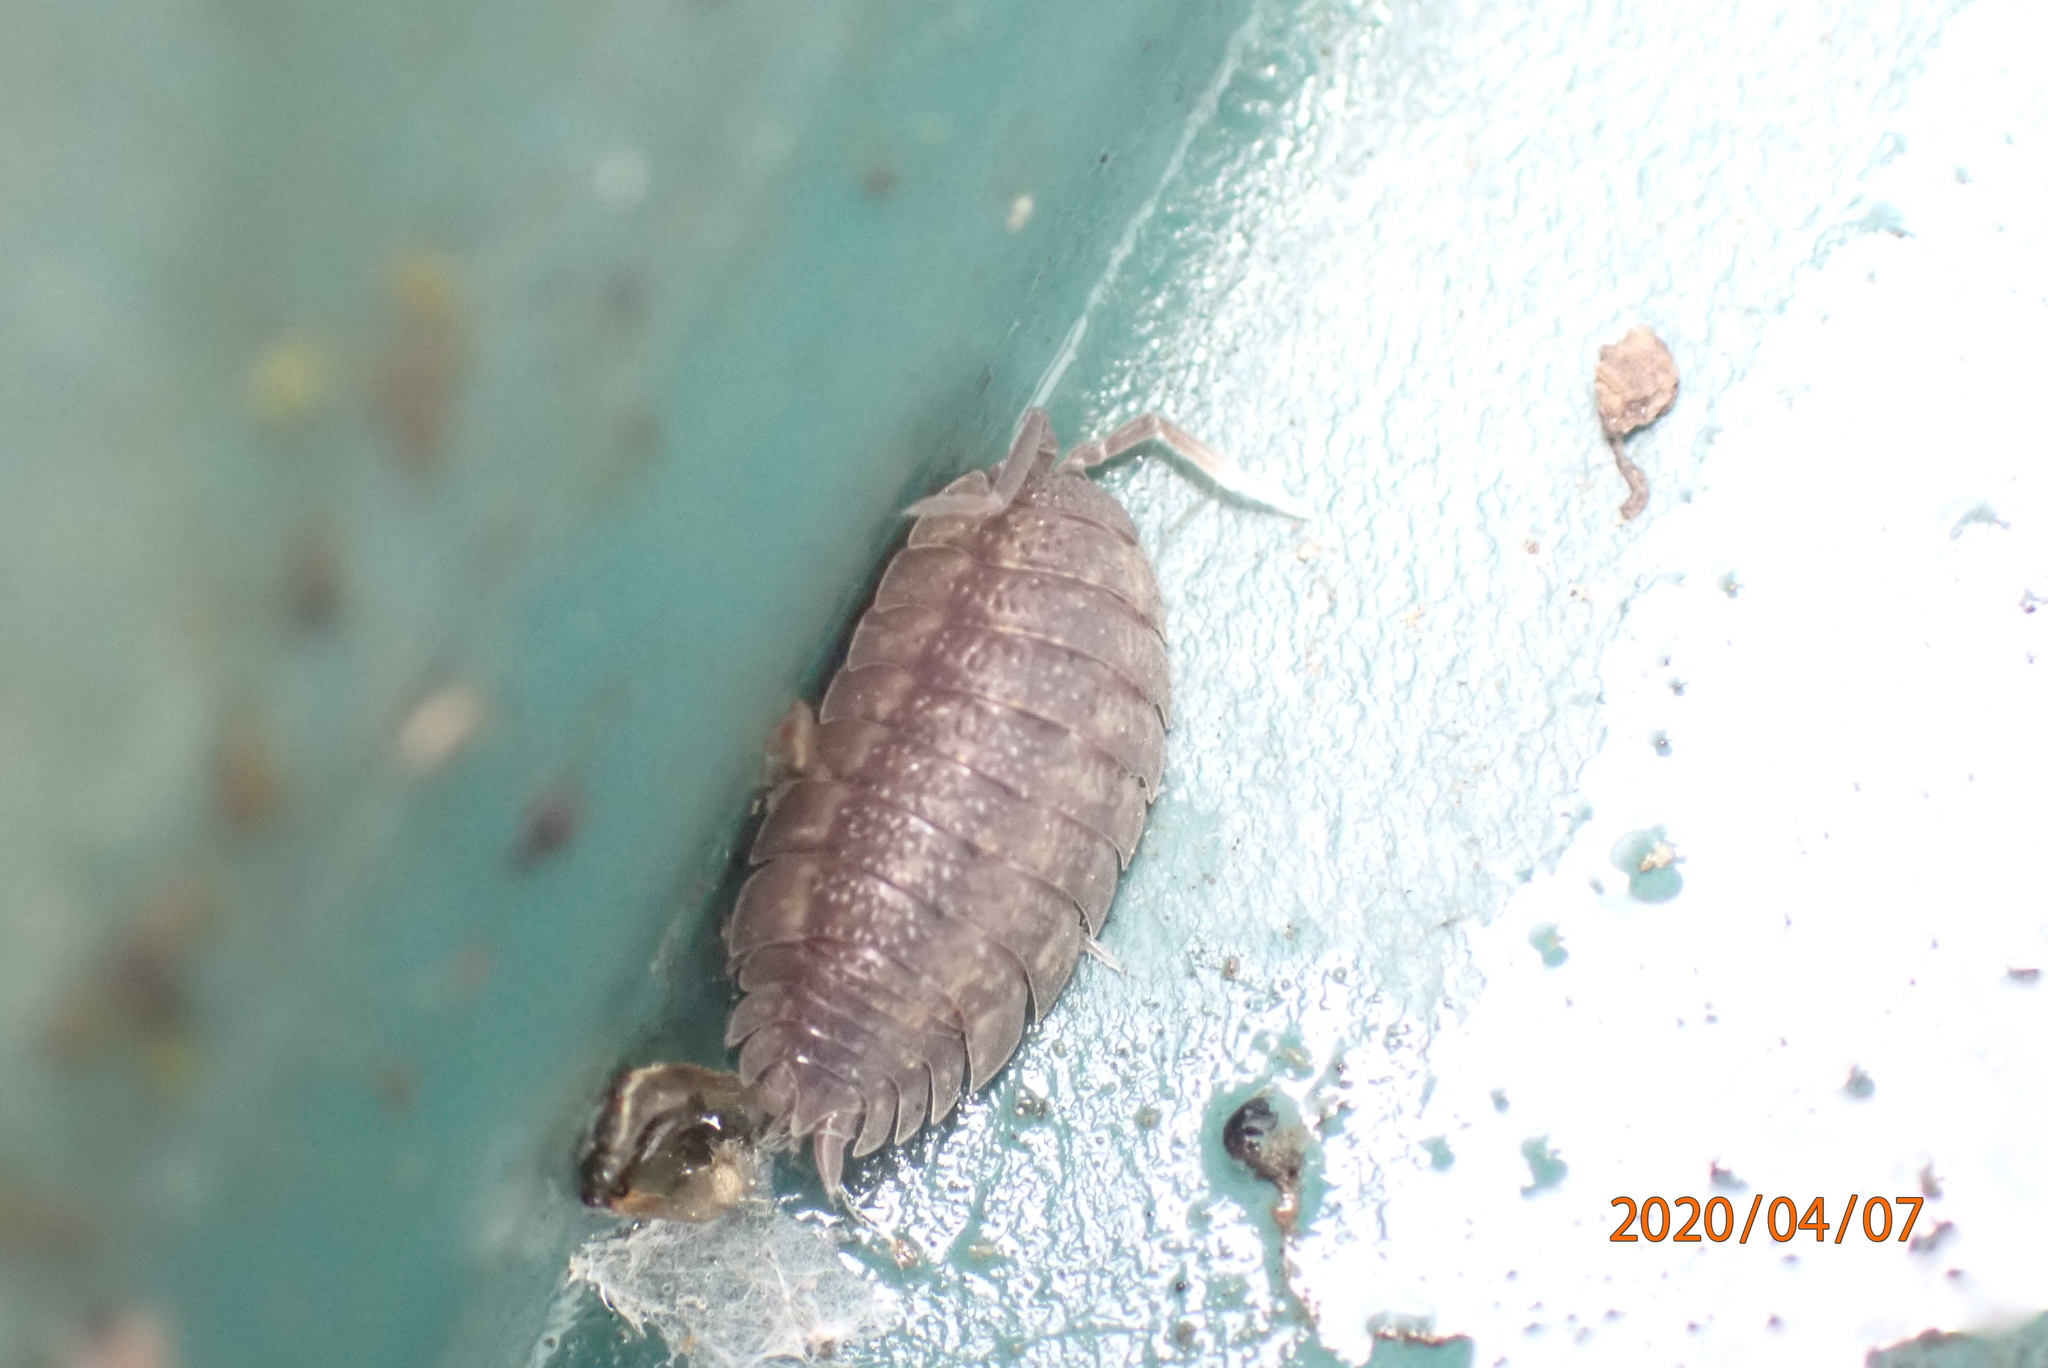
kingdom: Animalia
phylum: Arthropoda
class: Malacostraca
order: Isopoda
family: Porcellionidae
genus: Porcellio
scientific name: Porcellio scaber
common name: Common rough woodlouse
